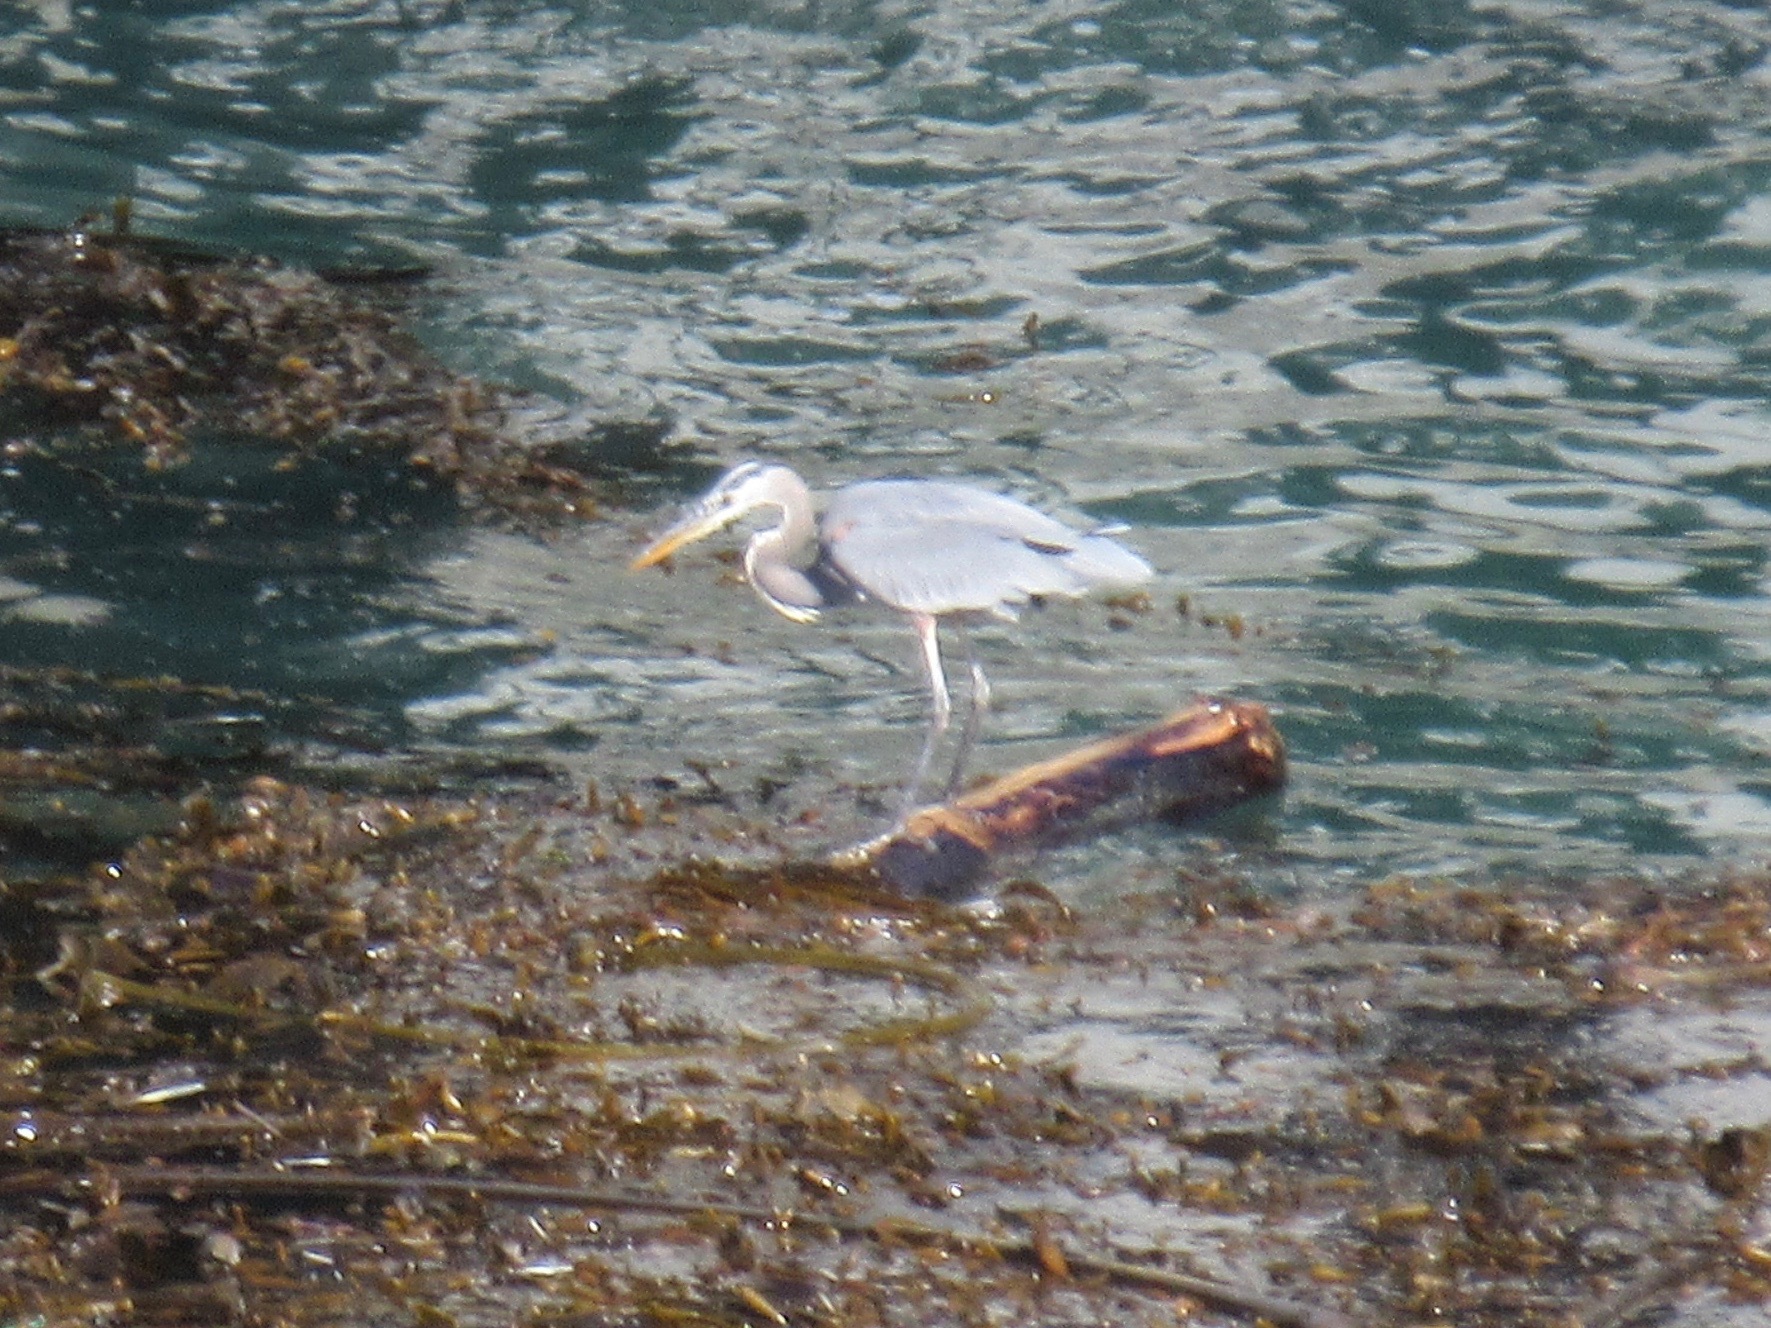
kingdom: Animalia
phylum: Chordata
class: Aves
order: Pelecaniformes
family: Ardeidae
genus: Ardea
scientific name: Ardea herodias
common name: Great blue heron
